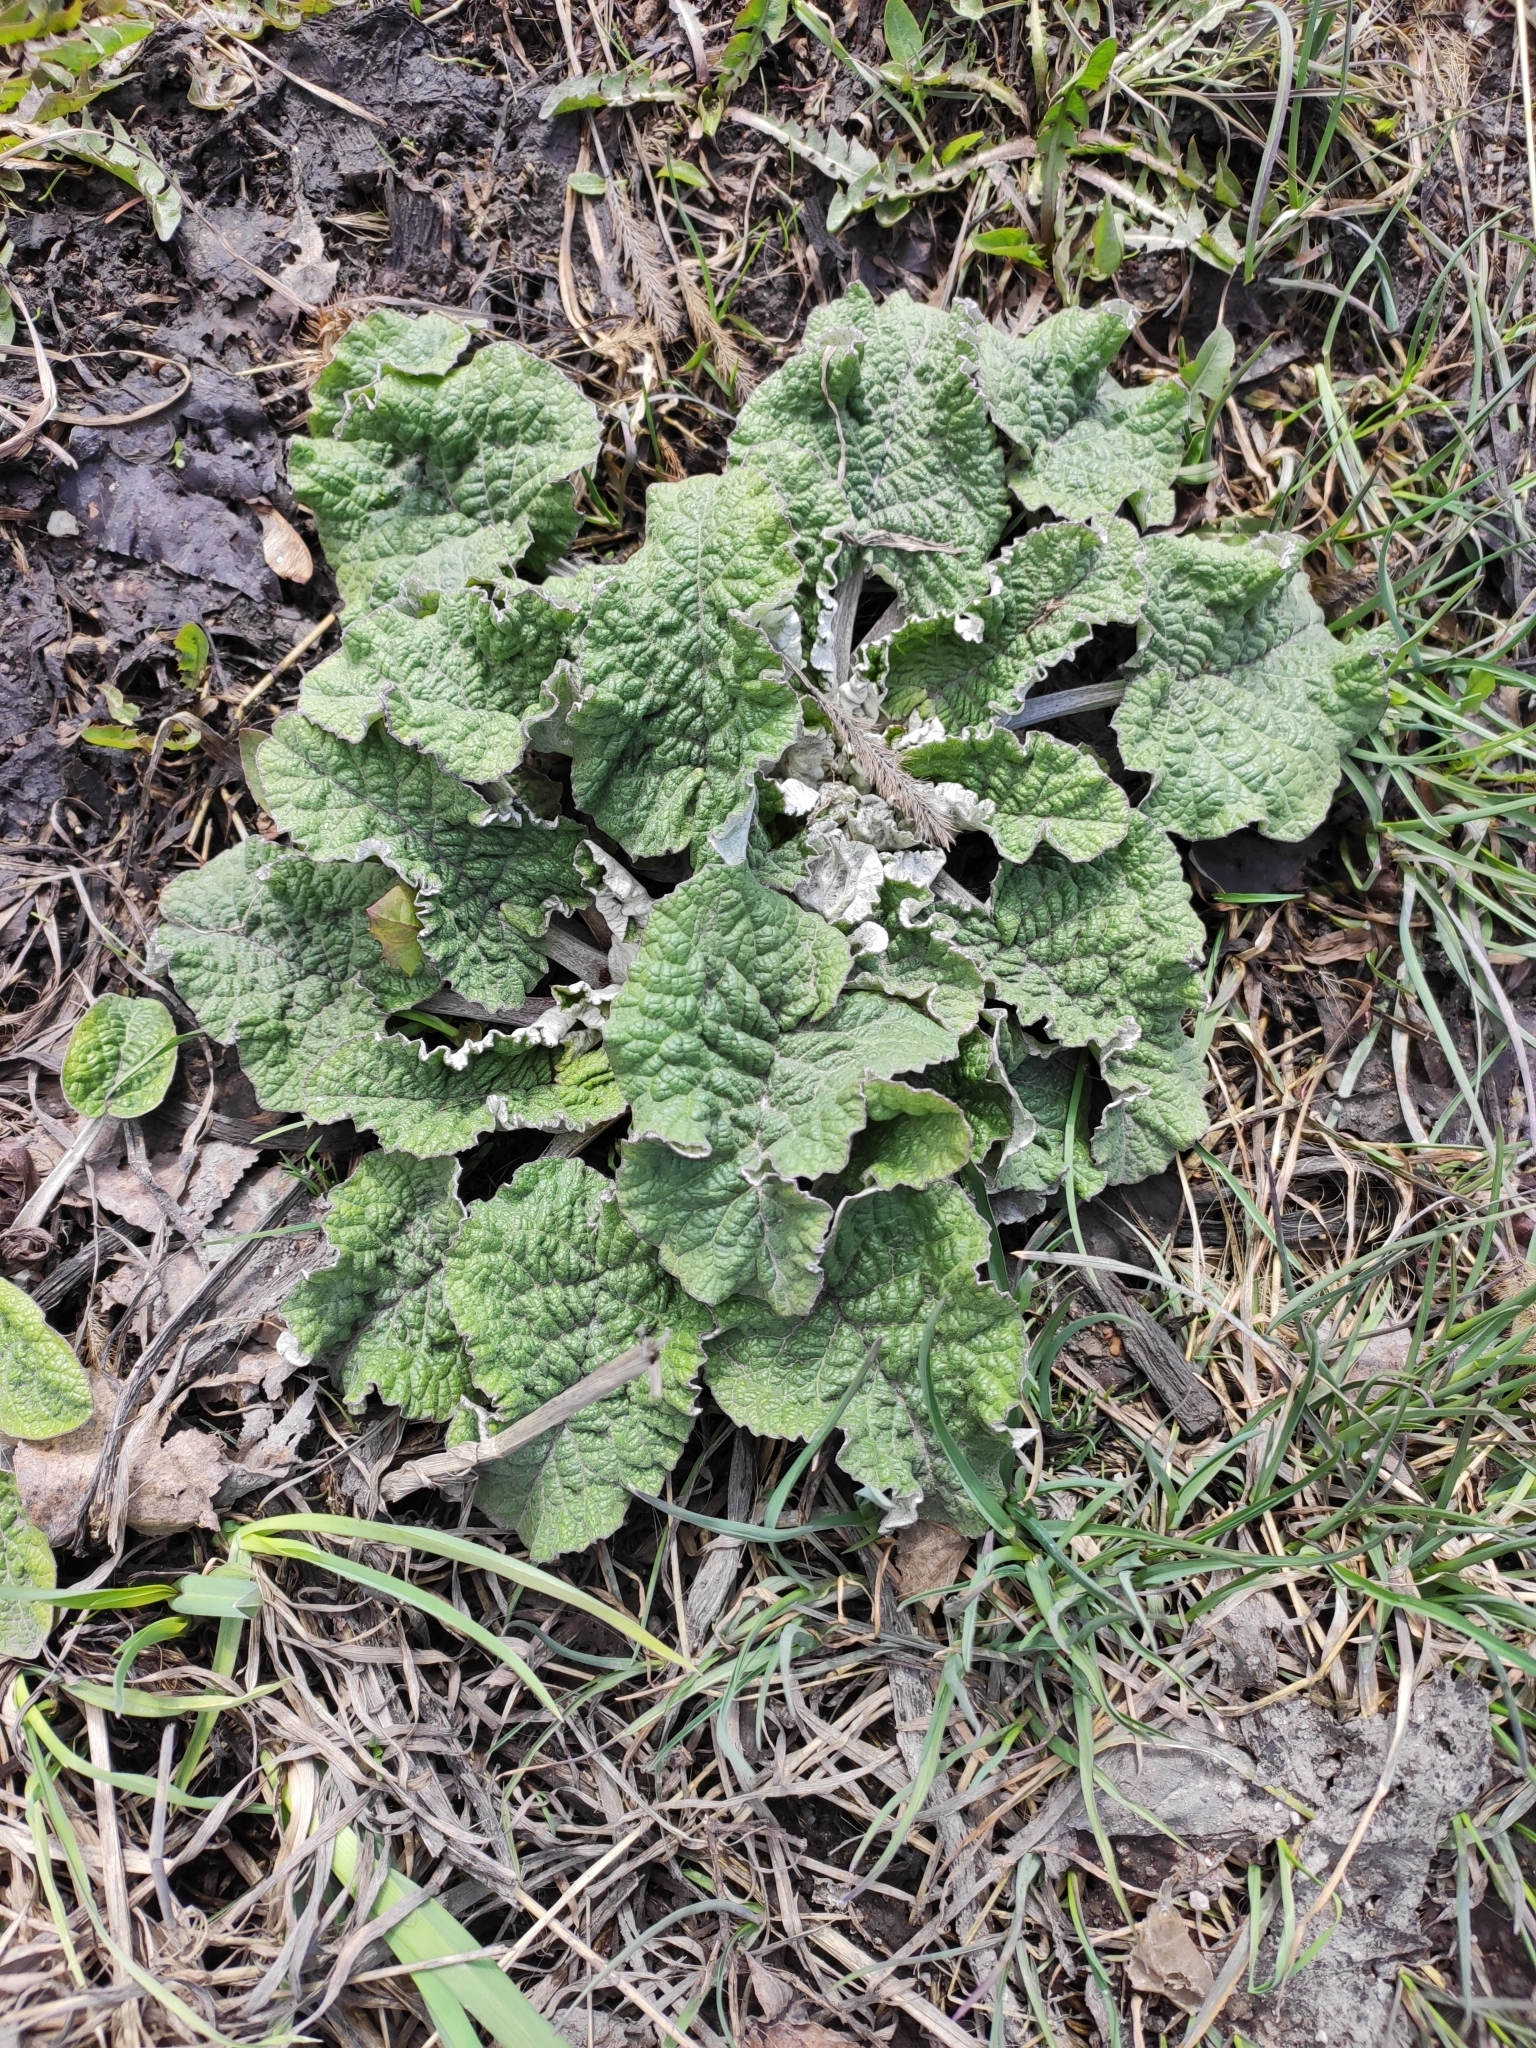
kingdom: Plantae
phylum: Tracheophyta
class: Magnoliopsida
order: Asterales
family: Asteraceae
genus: Arctium
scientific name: Arctium tomentosum
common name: Woolly burdock
